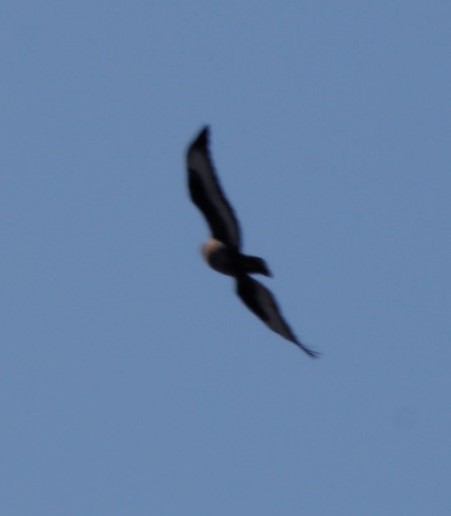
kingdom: Animalia
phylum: Chordata
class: Aves
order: Accipitriformes
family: Accipitridae
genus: Buteo
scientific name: Buteo rufofuscus
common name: Jackal buzzard
